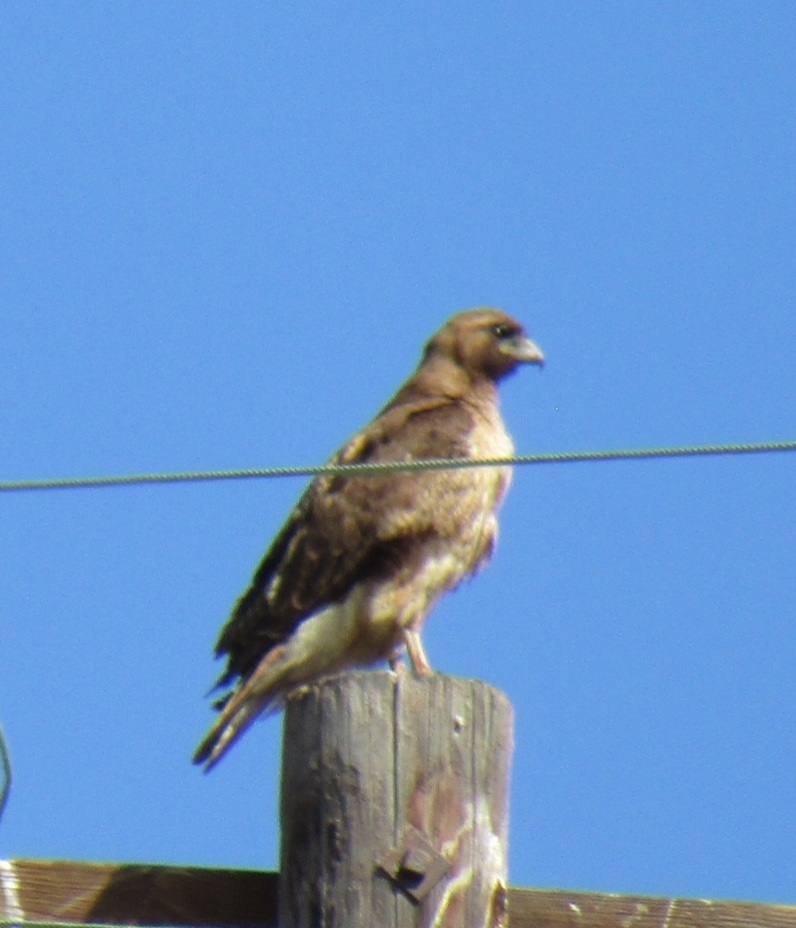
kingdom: Animalia
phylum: Chordata
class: Aves
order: Accipitriformes
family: Accipitridae
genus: Buteo
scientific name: Buteo jamaicensis
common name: Red-tailed hawk
